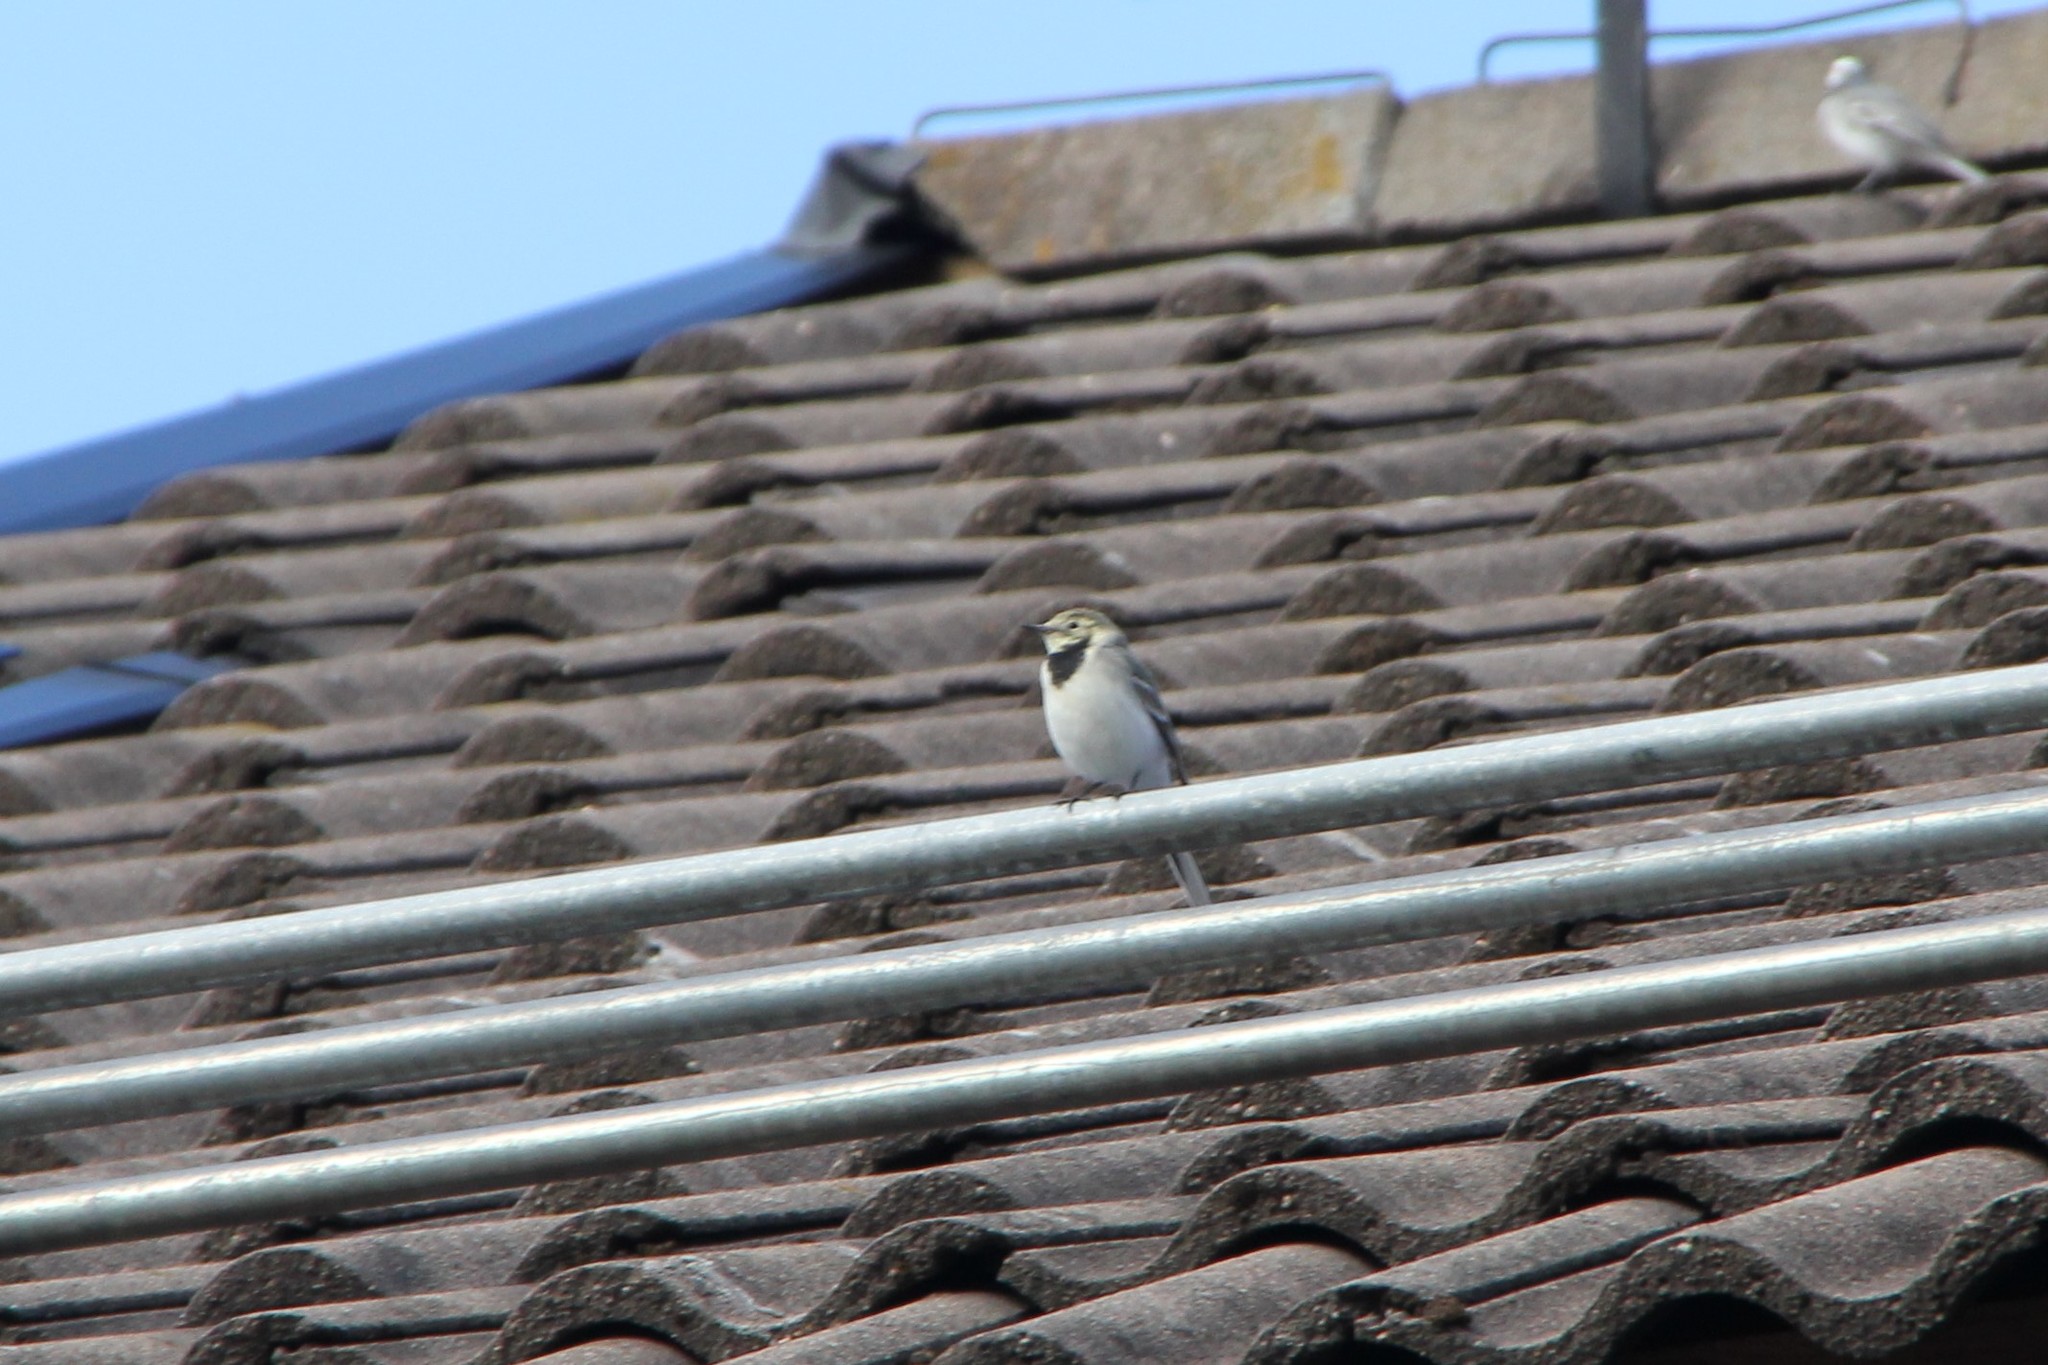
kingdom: Animalia
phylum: Chordata
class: Aves
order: Passeriformes
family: Motacillidae
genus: Motacilla
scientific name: Motacilla alba
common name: White wagtail
